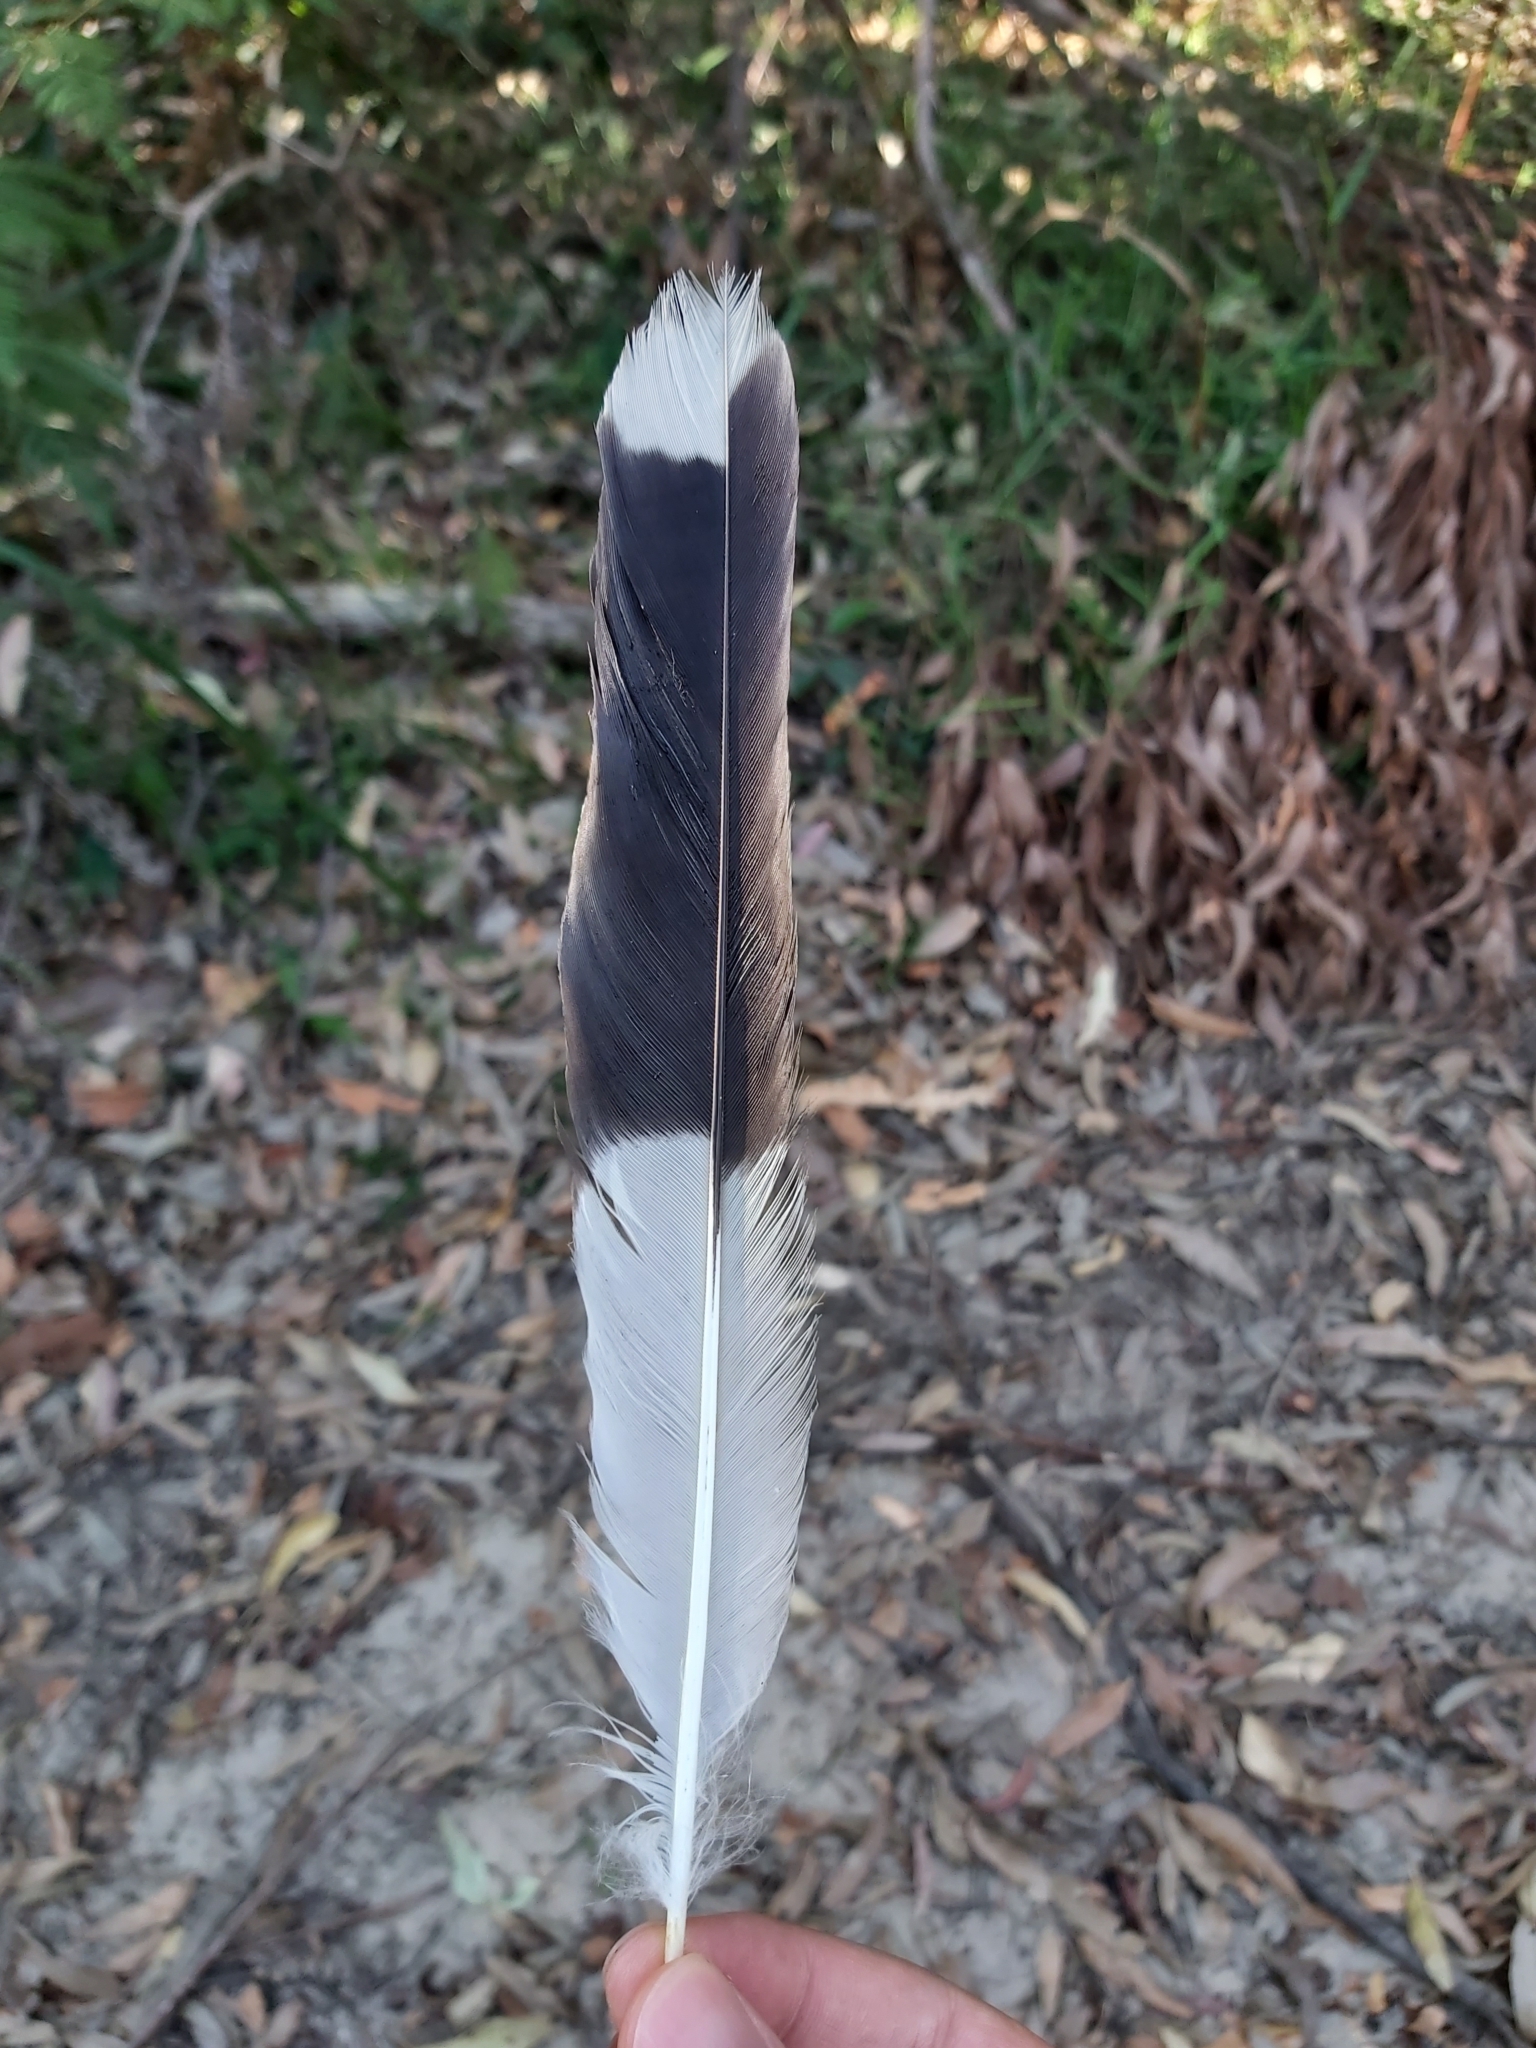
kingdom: Animalia
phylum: Chordata
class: Aves
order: Passeriformes
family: Cracticidae
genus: Strepera
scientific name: Strepera graculina
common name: Pied currawong
